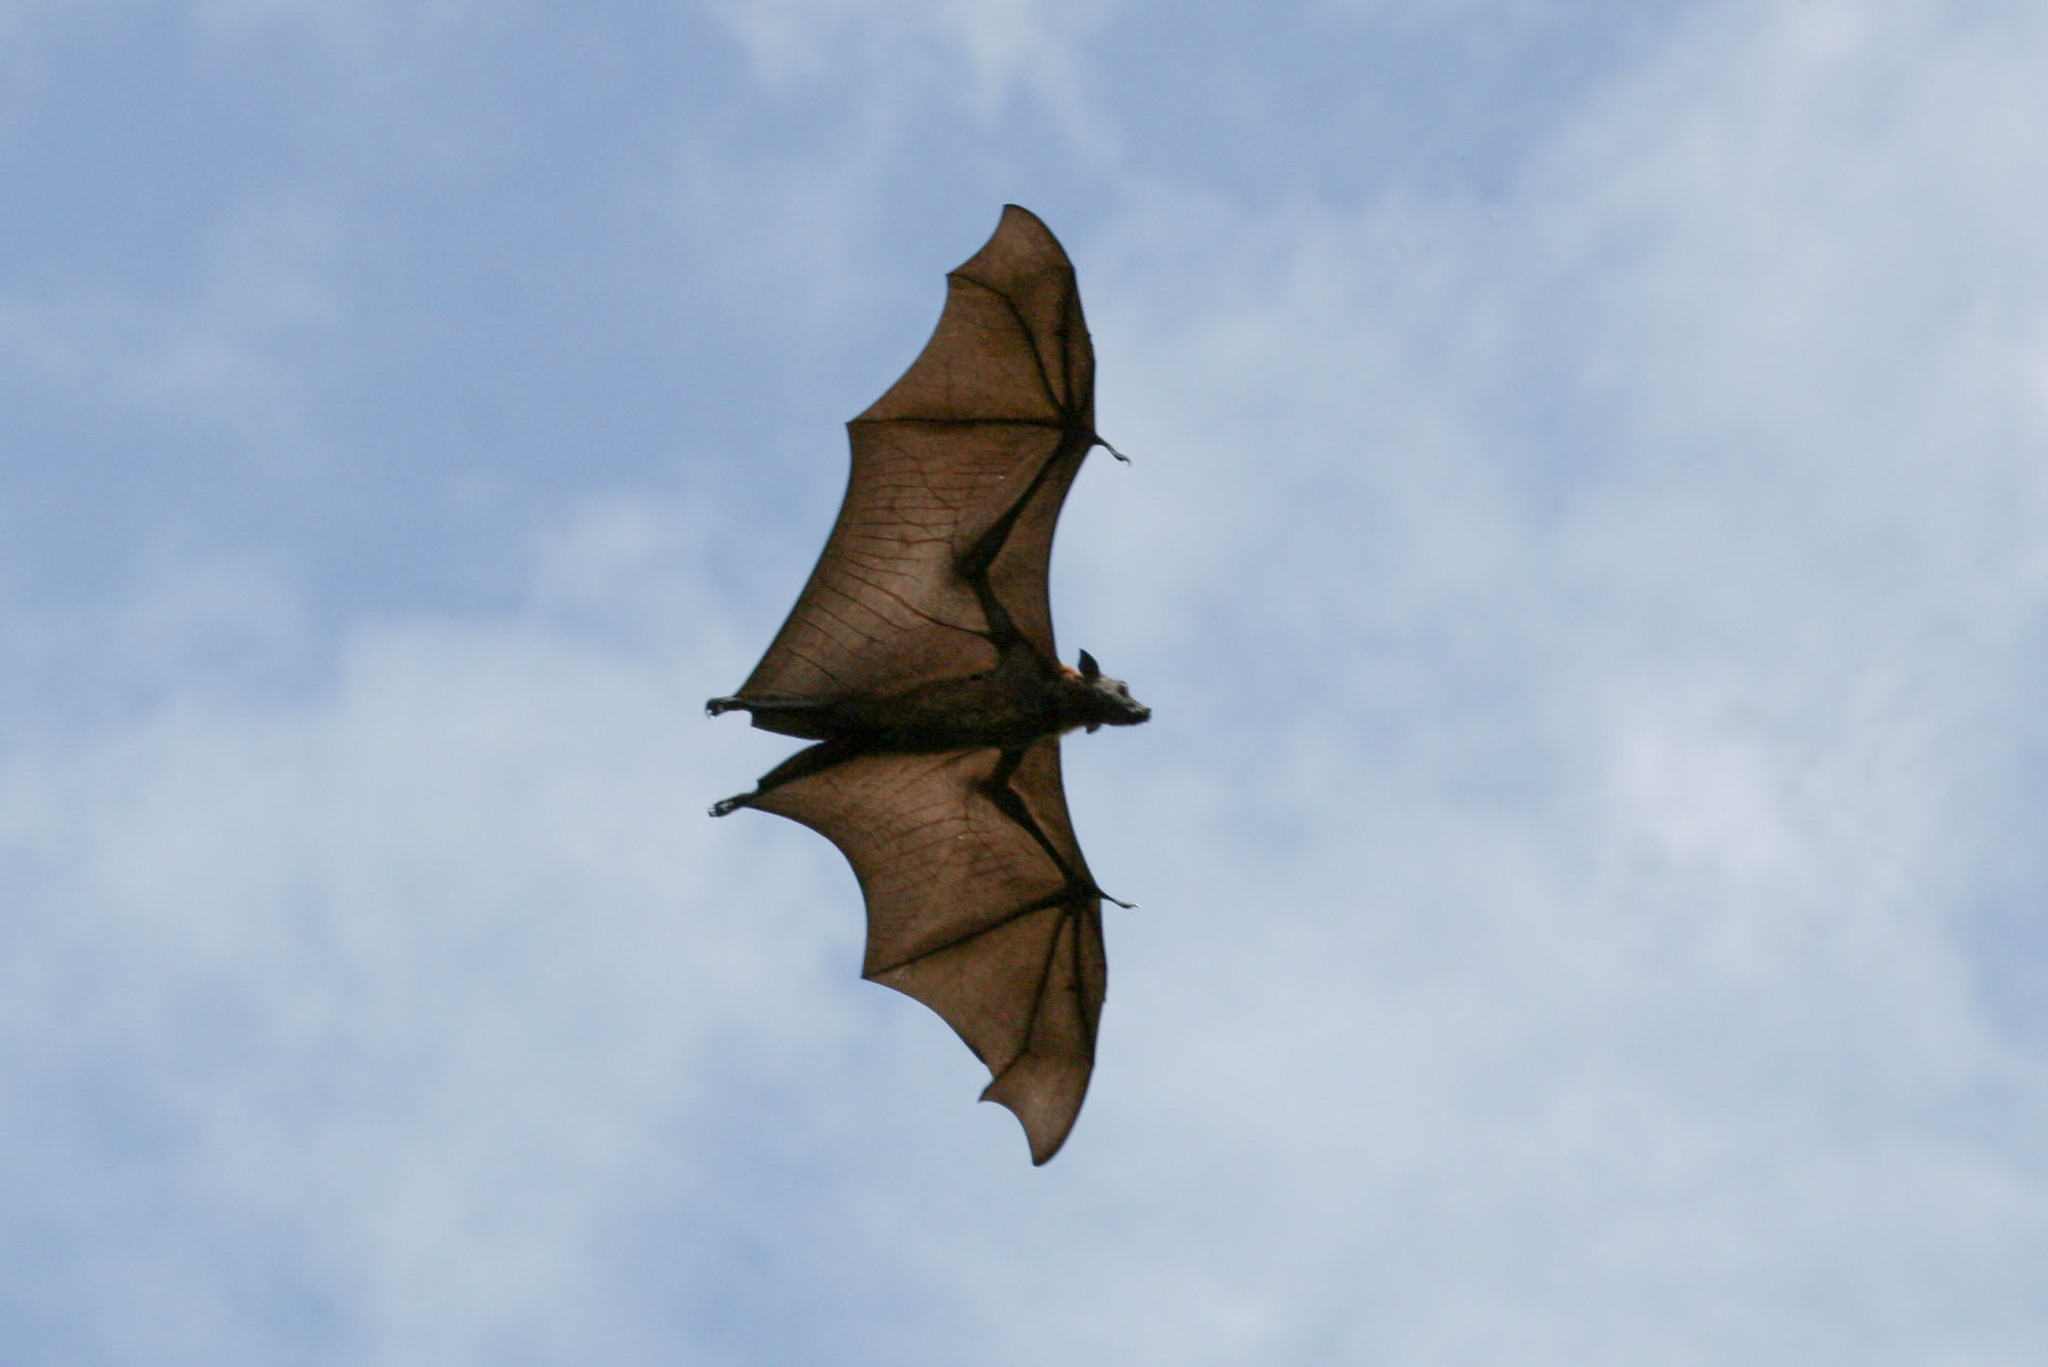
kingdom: Animalia
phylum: Chordata
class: Mammalia
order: Chiroptera
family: Pteropodidae
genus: Pteropus
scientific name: Pteropus vampyrus
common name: Large flying fox
